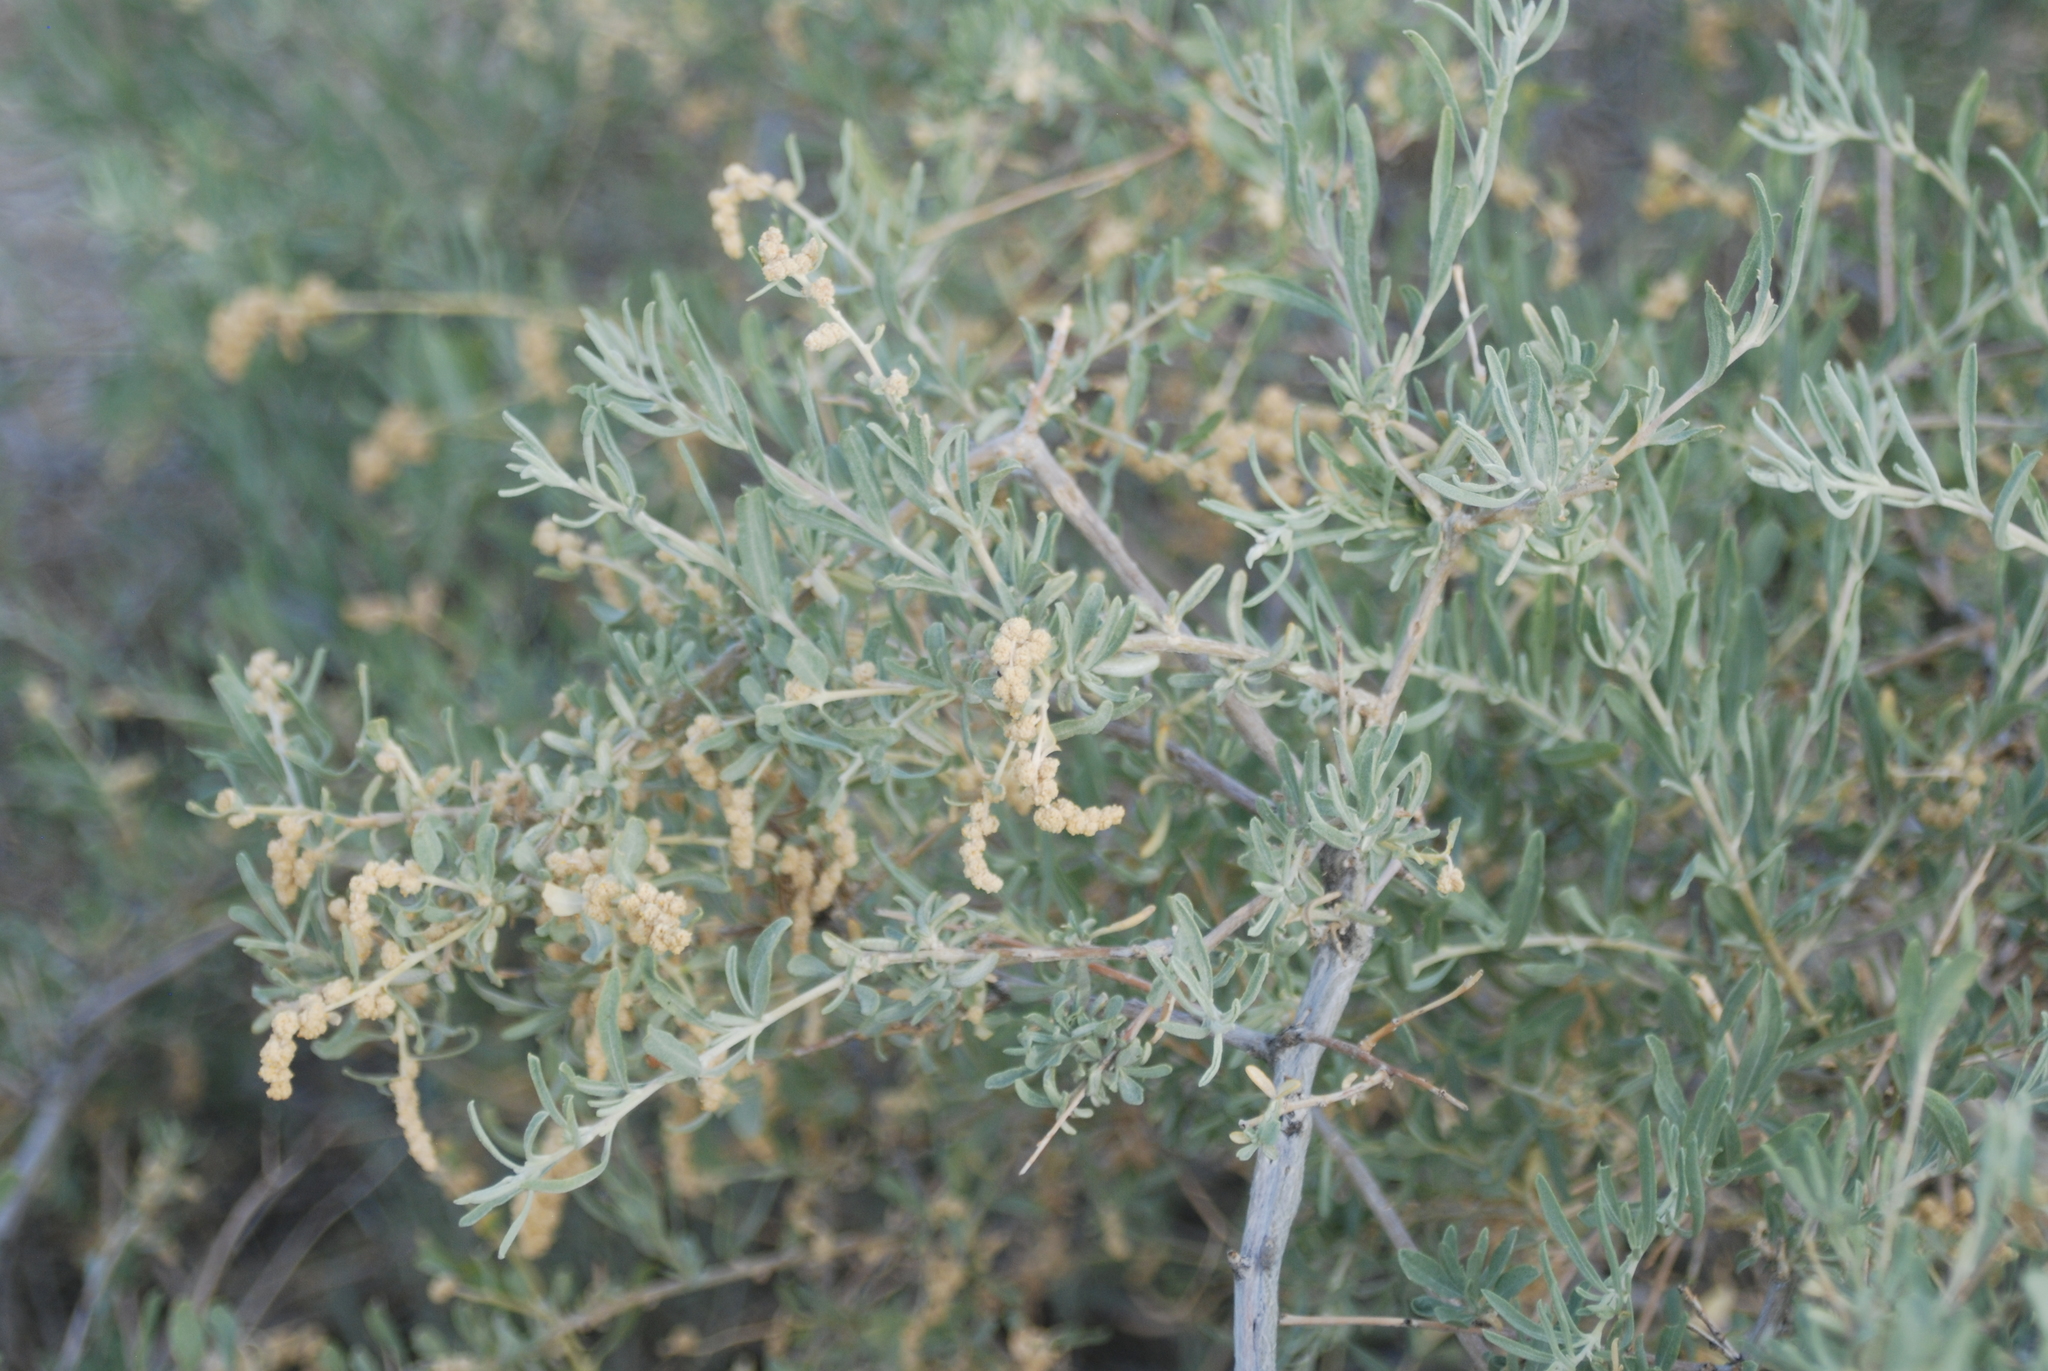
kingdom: Plantae
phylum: Tracheophyta
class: Magnoliopsida
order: Caryophyllales
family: Amaranthaceae
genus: Atriplex
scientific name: Atriplex canescens
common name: Four-wing saltbush
